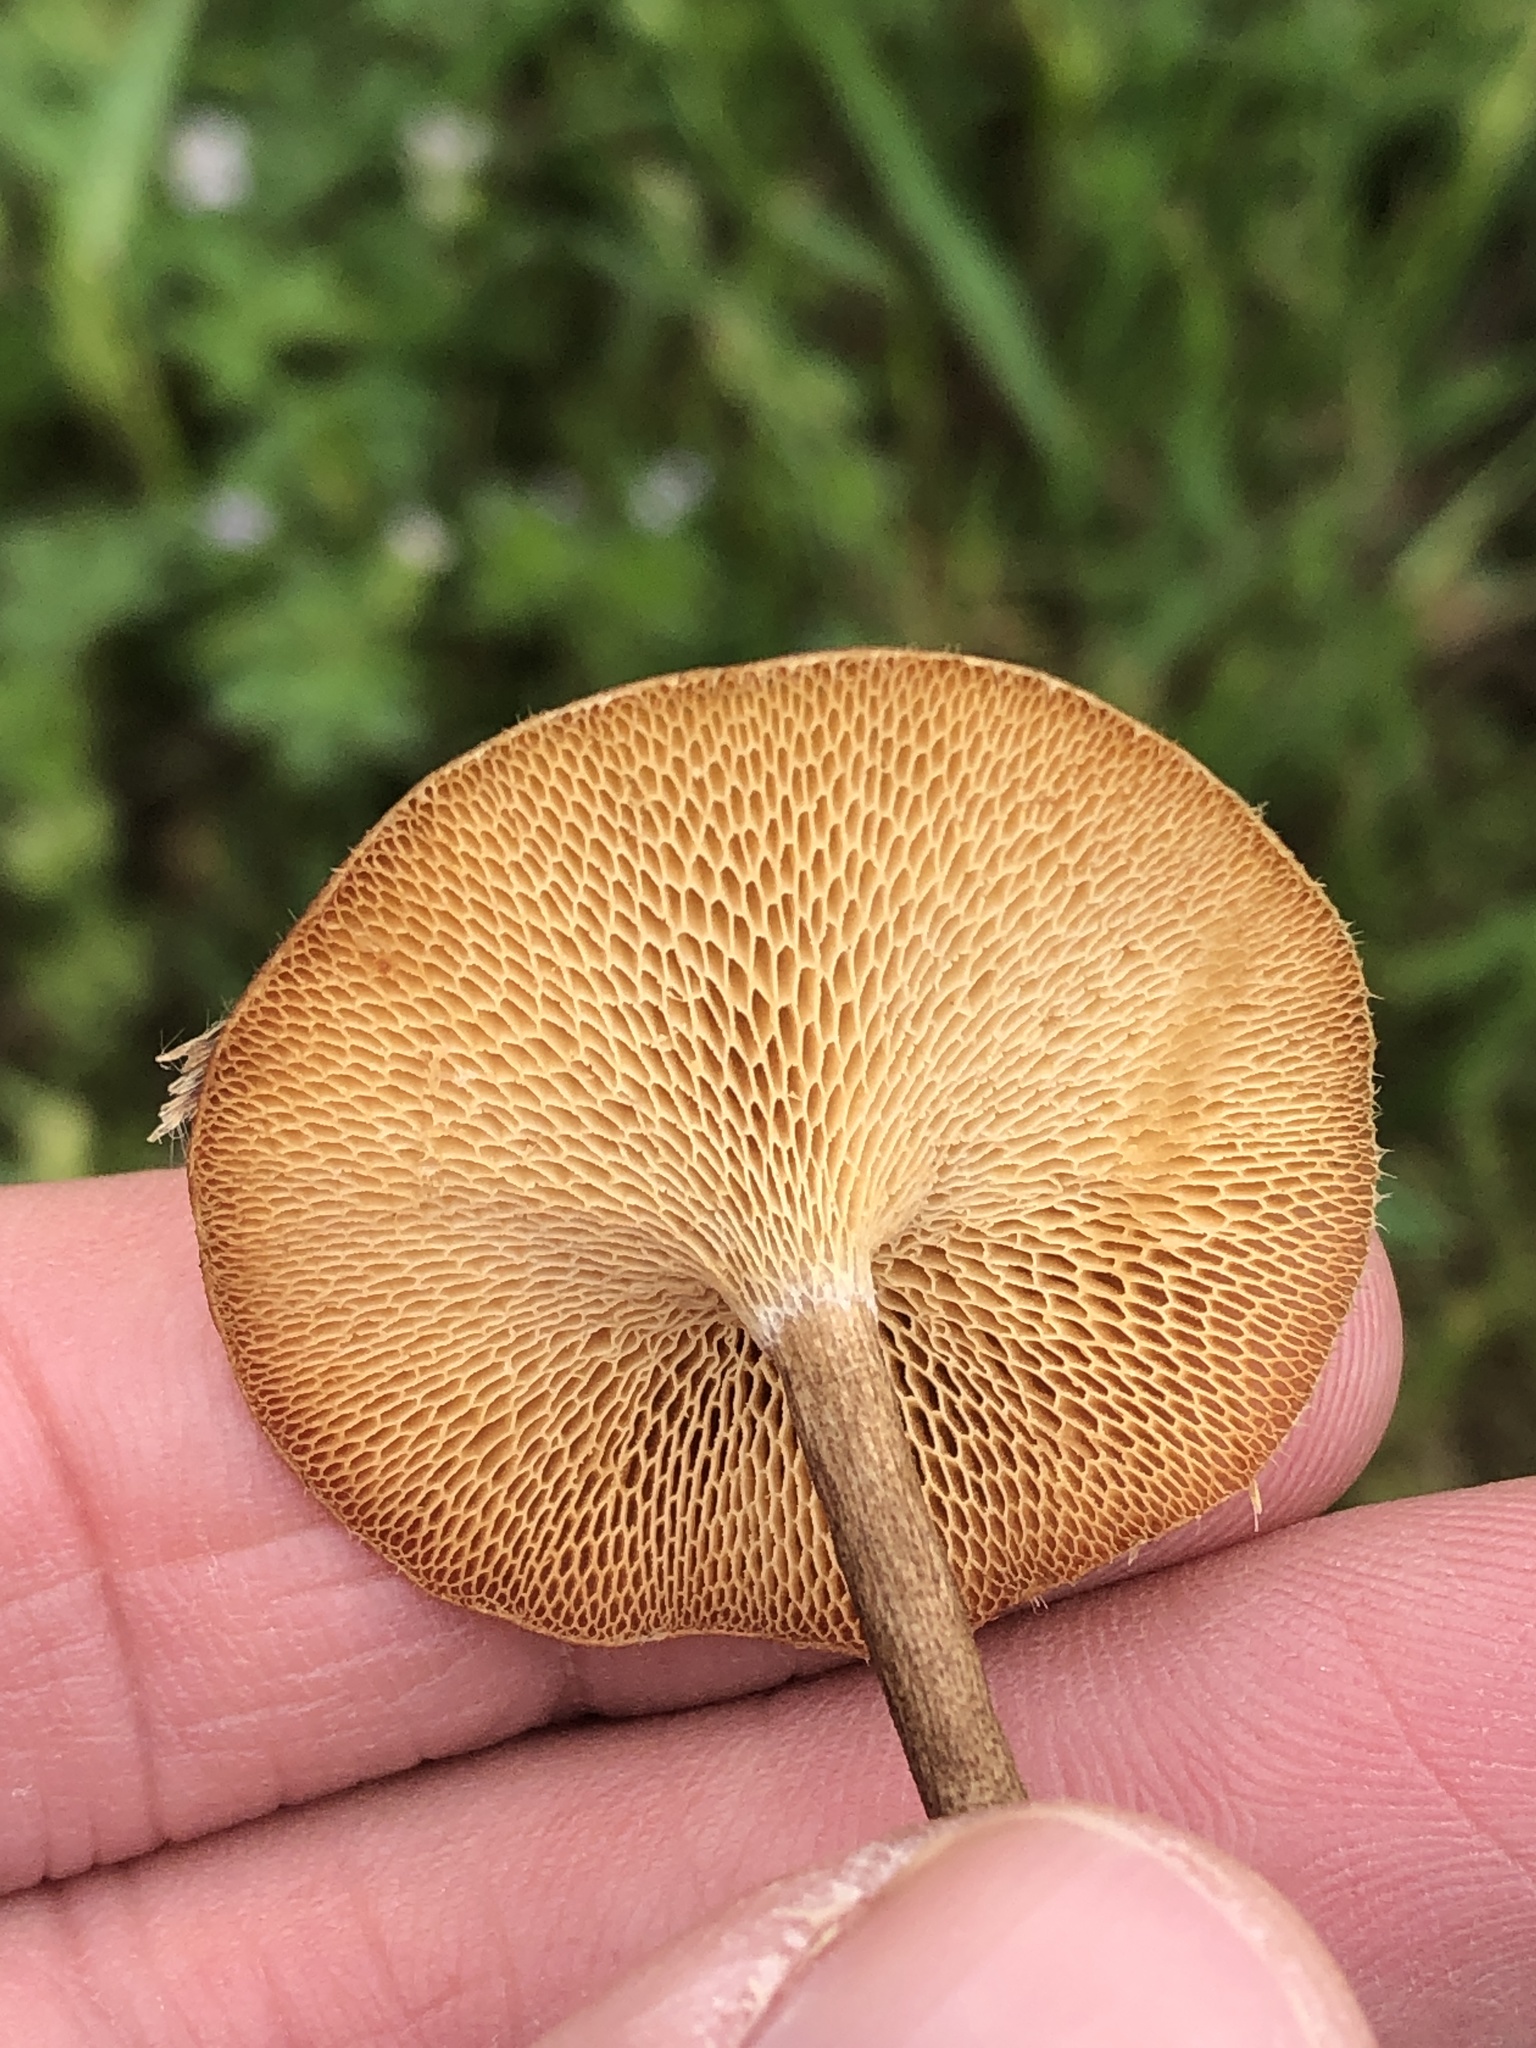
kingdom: Fungi
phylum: Basidiomycota
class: Agaricomycetes
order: Polyporales
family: Polyporaceae
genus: Lentinus
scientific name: Lentinus arcularius
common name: Spring polypore
